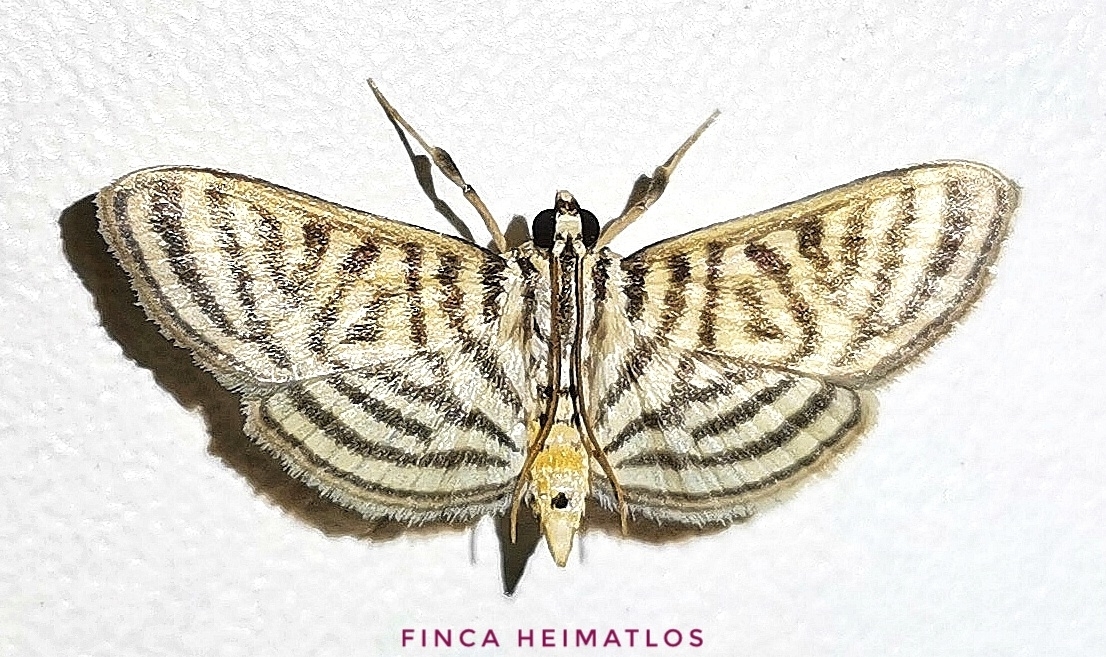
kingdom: Animalia
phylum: Arthropoda
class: Insecta
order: Lepidoptera
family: Crambidae
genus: Zebronia
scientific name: Zebronia
